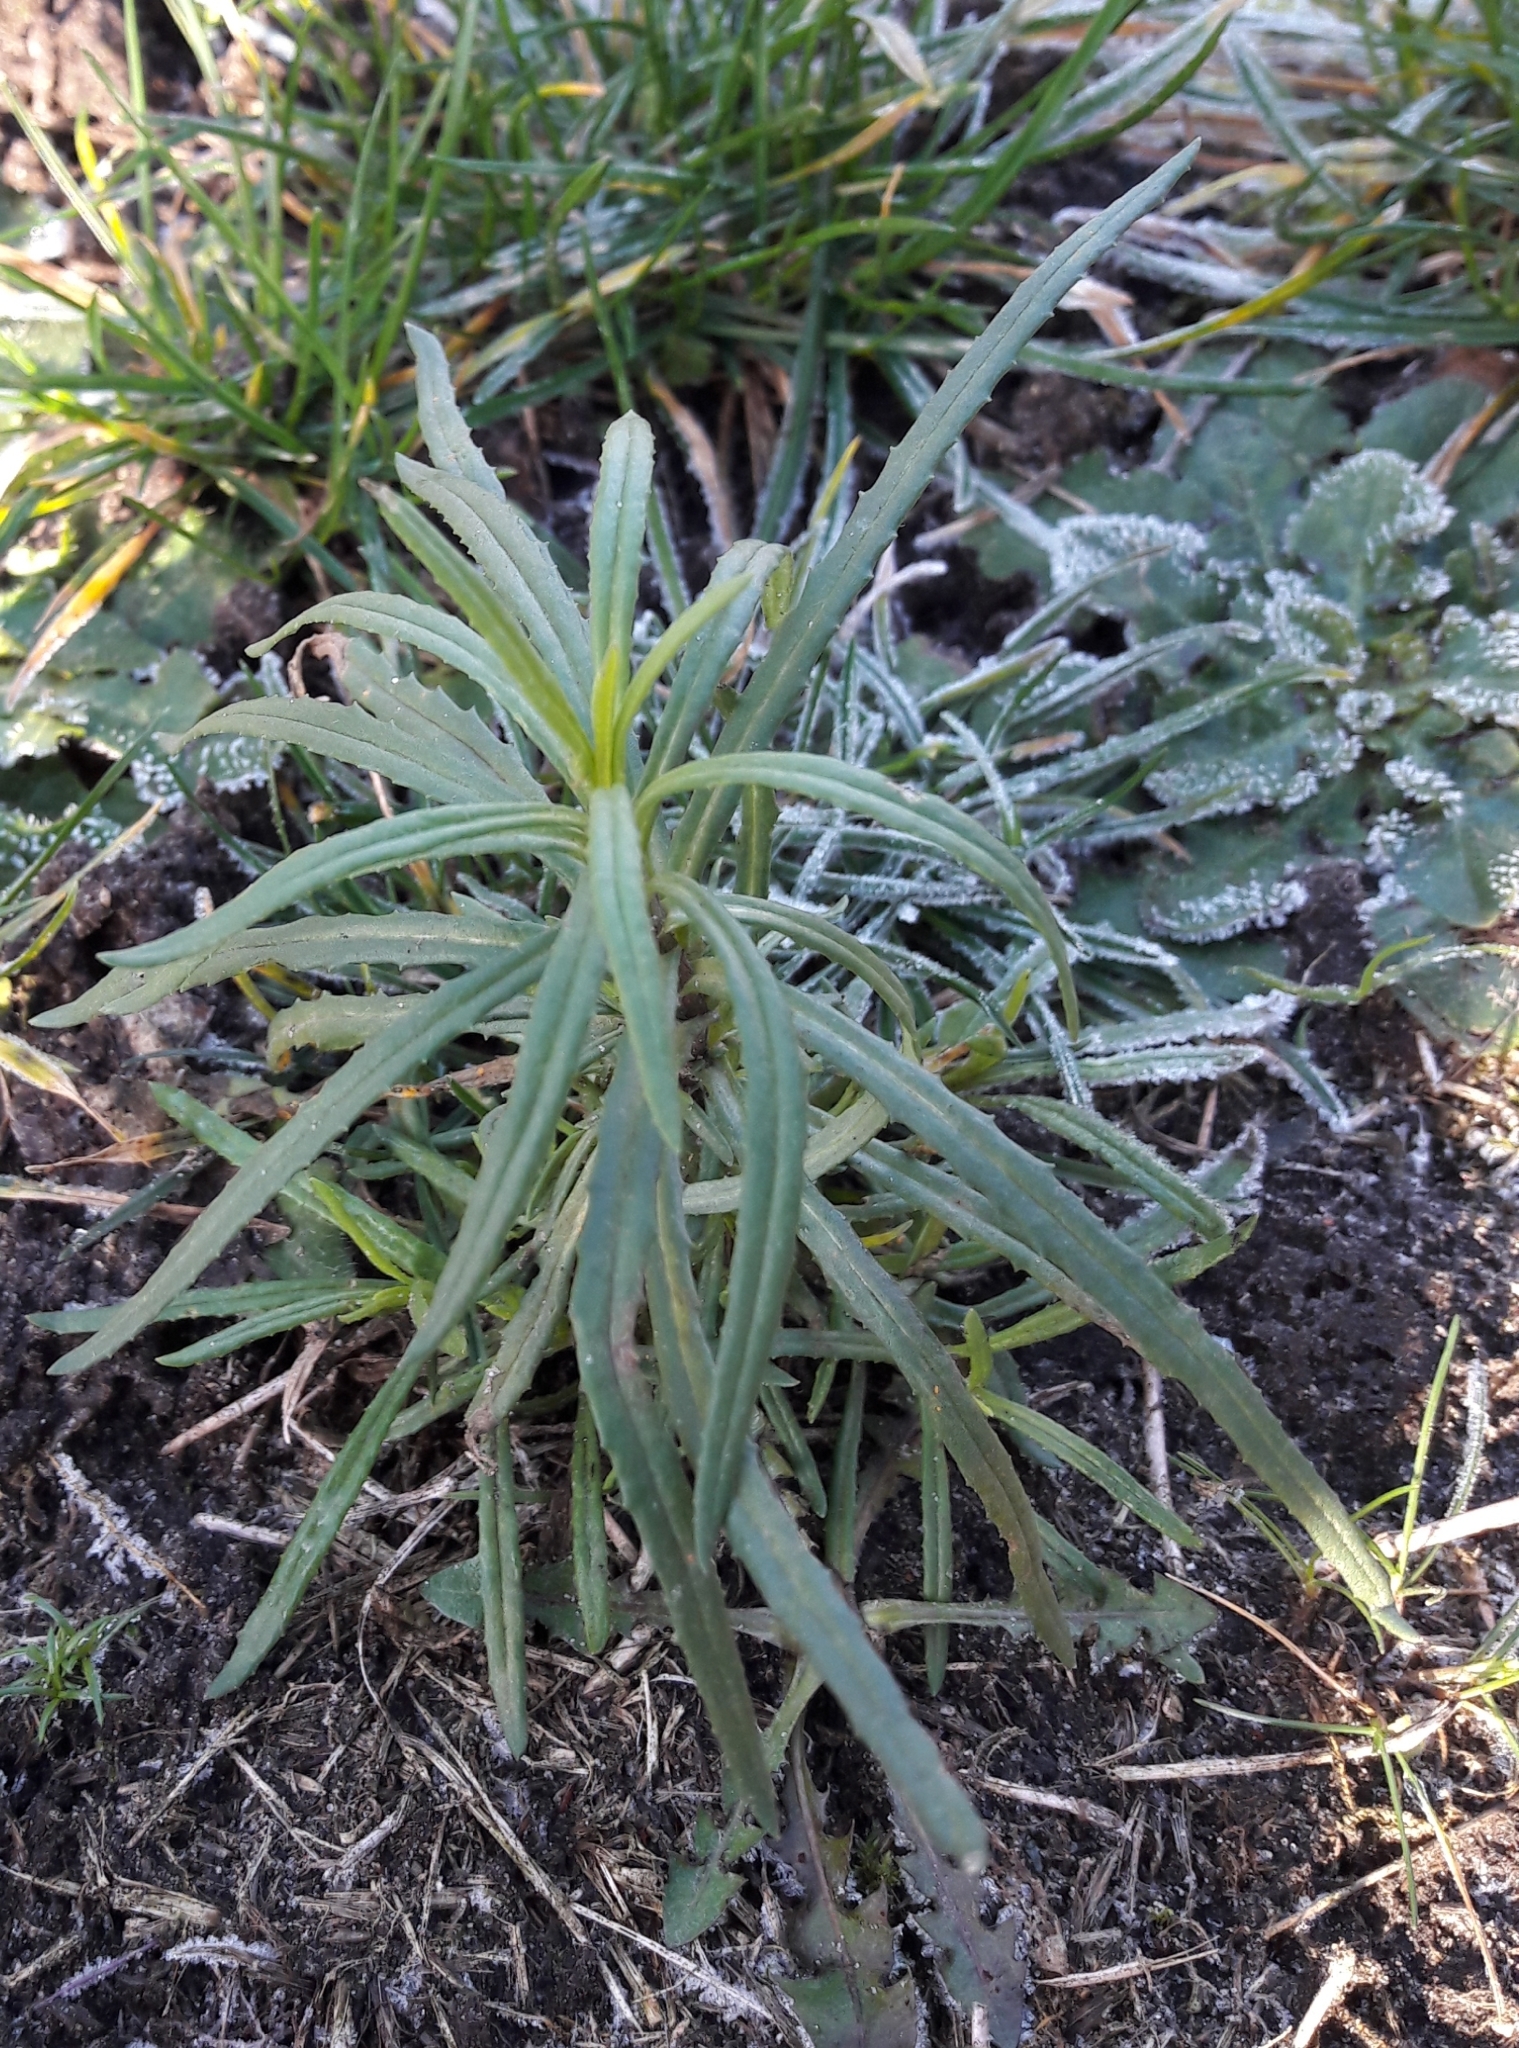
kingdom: Plantae
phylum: Tracheophyta
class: Magnoliopsida
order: Lamiales
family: Plantaginaceae
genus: Linaria
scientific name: Linaria vulgaris
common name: Butter and eggs
